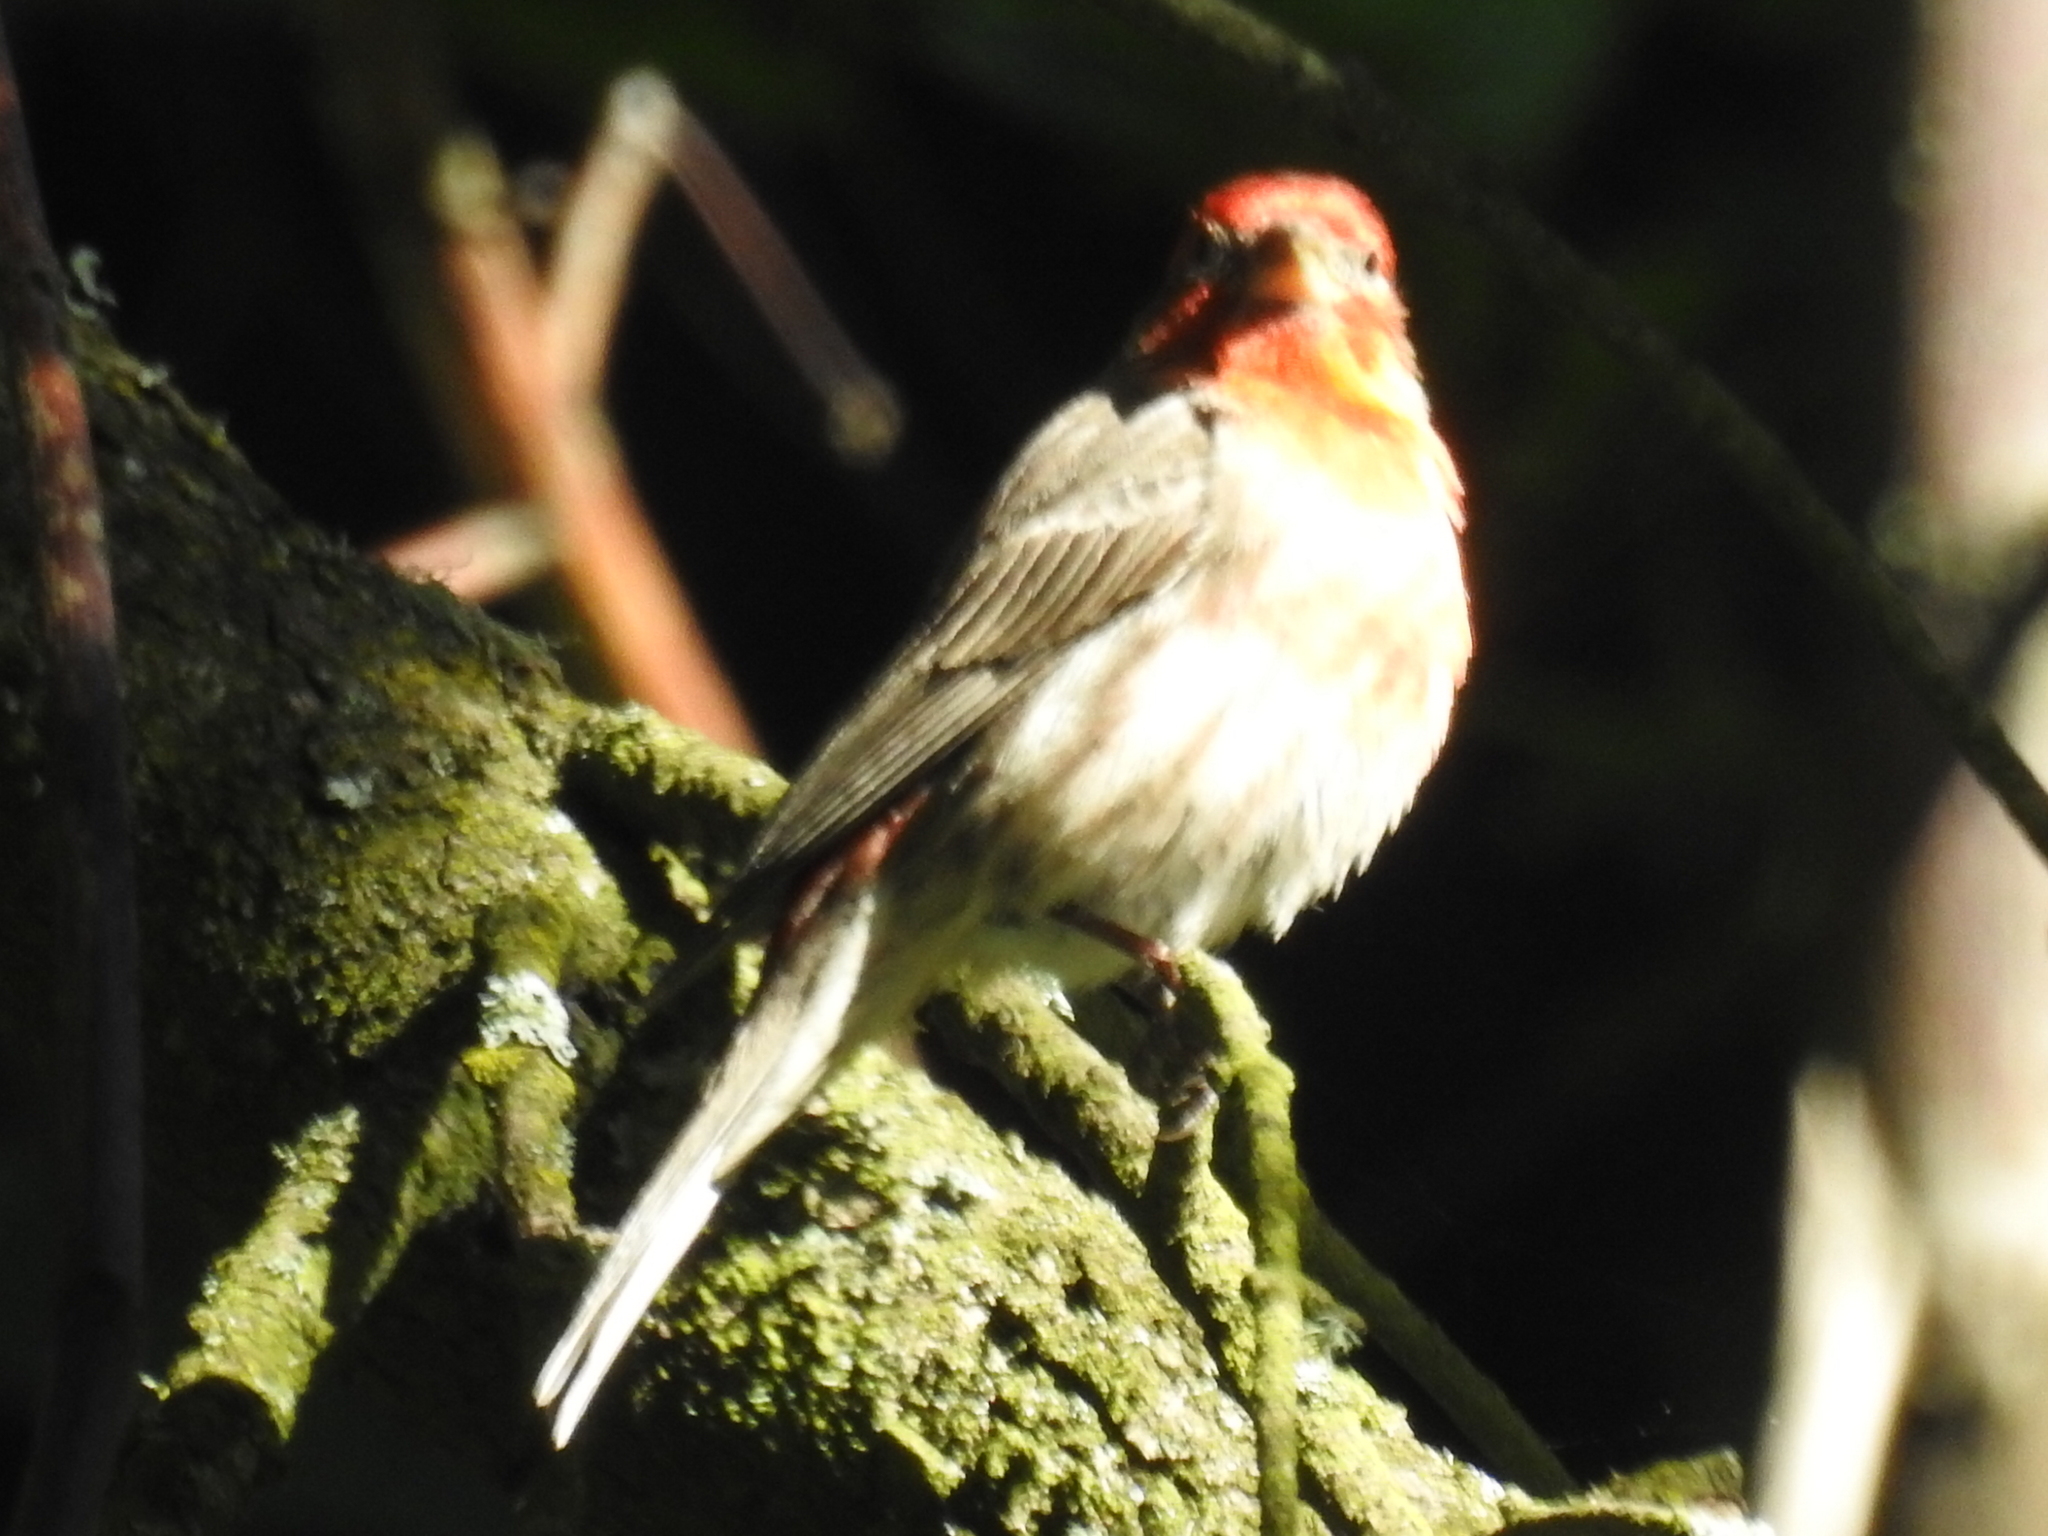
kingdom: Animalia
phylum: Chordata
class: Aves
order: Passeriformes
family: Fringillidae
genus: Haemorhous
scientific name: Haemorhous mexicanus
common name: House finch
